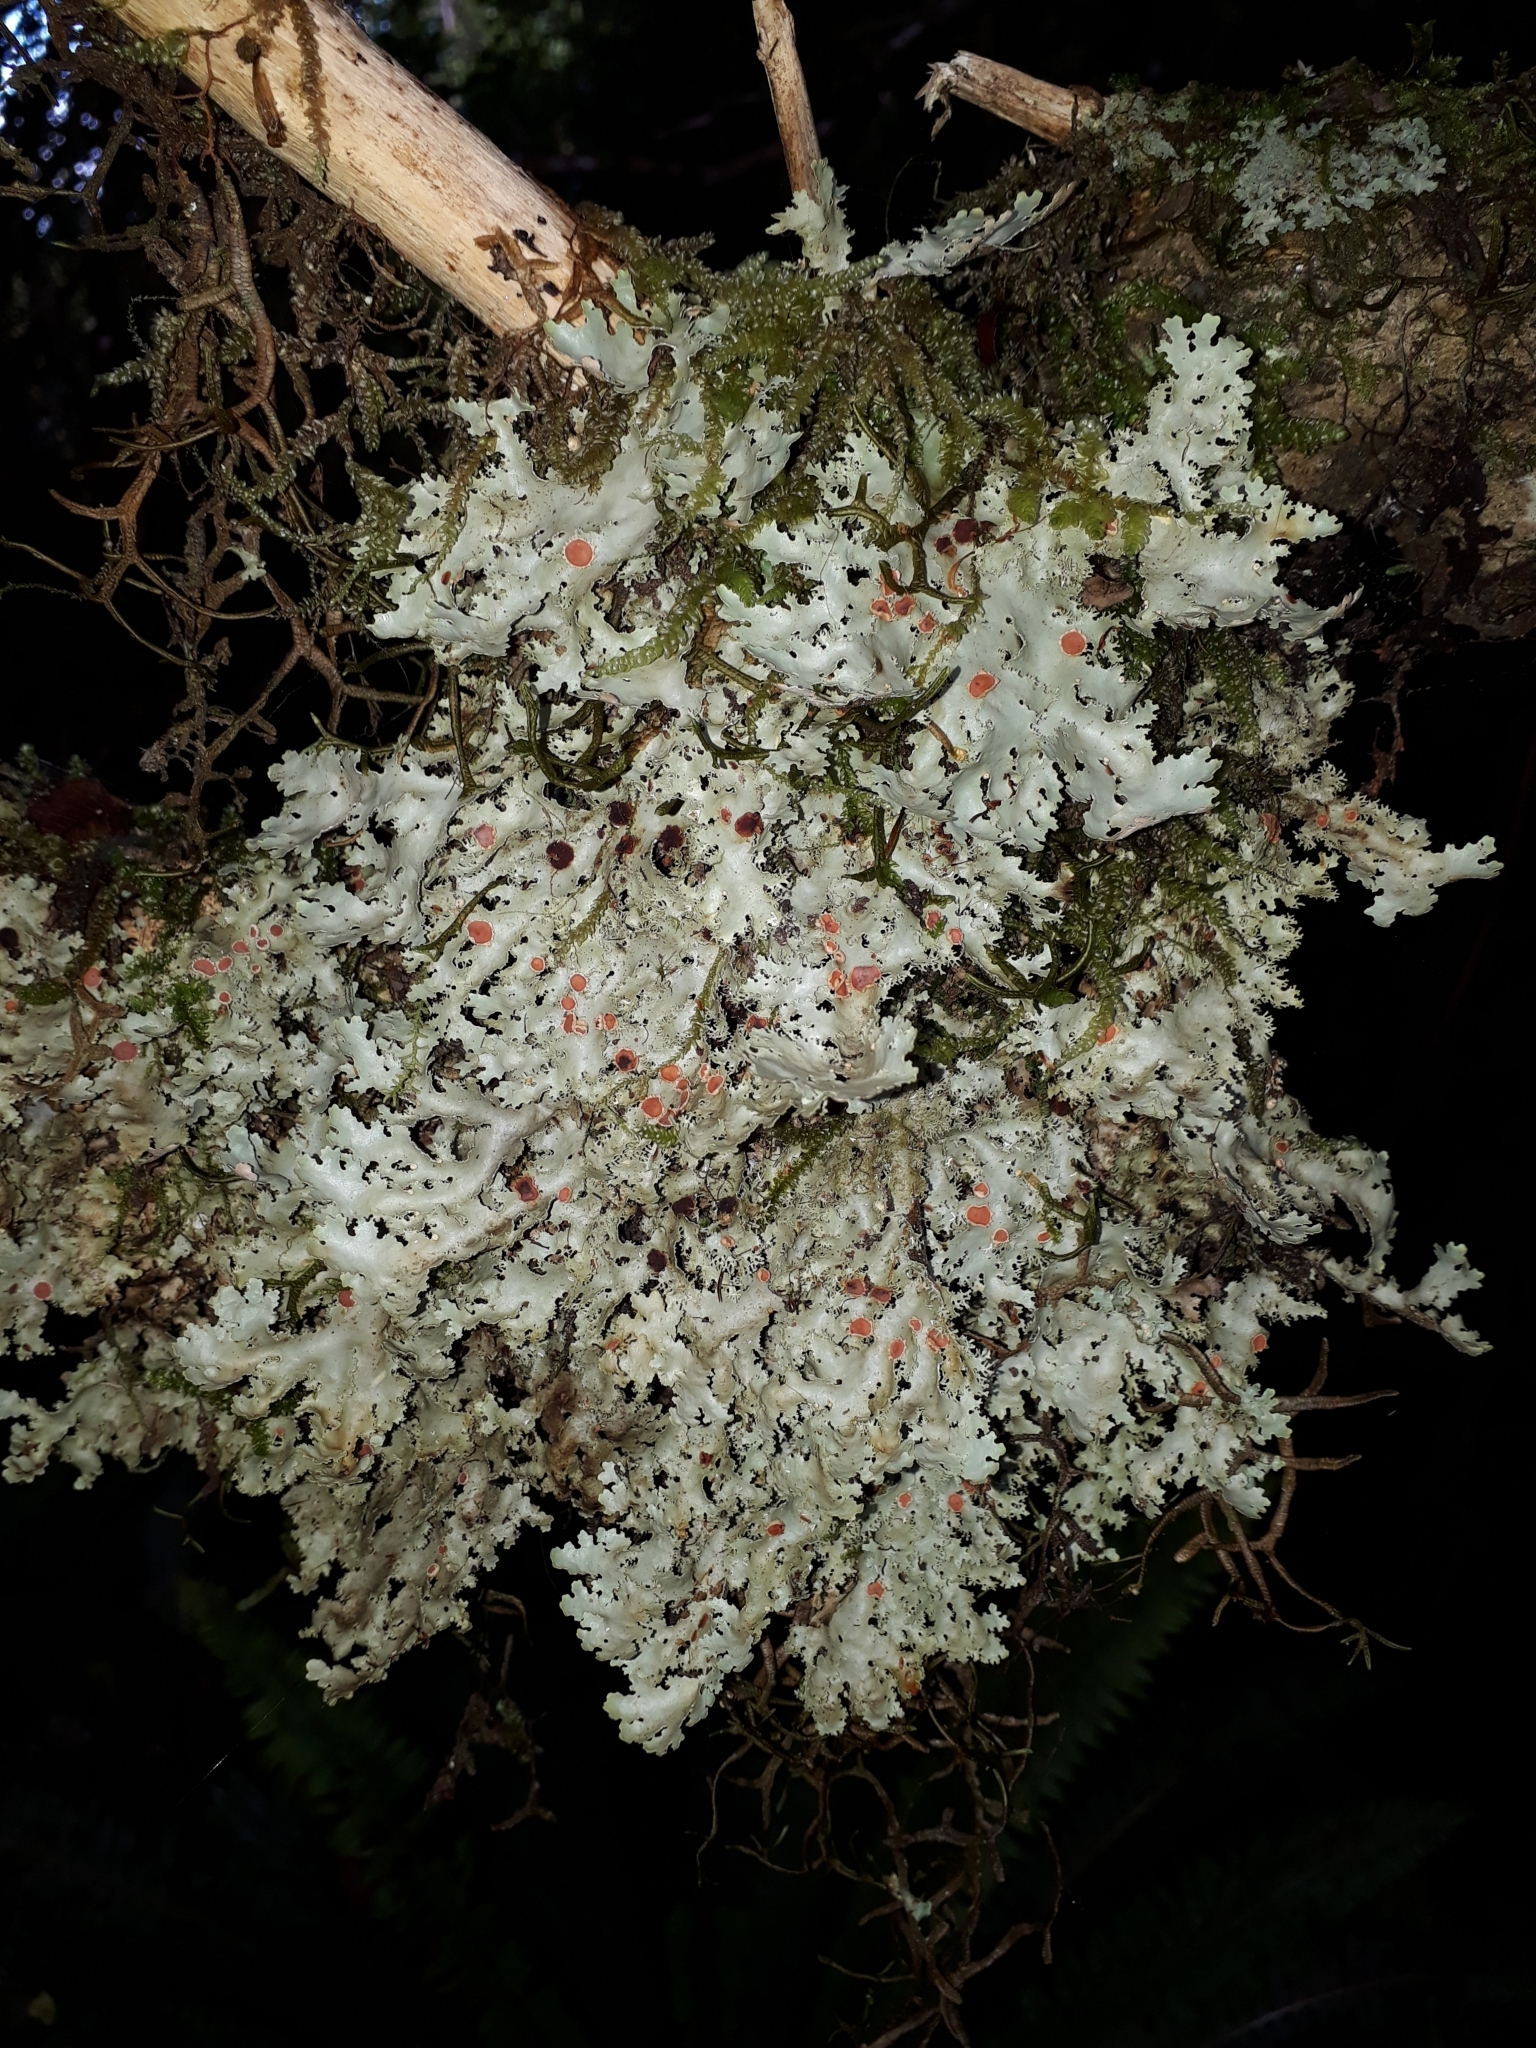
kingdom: Fungi
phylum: Ascomycota
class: Lecanoromycetes
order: Peltigerales
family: Lobariaceae
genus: Pseudocyphellaria
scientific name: Pseudocyphellaria glabra
